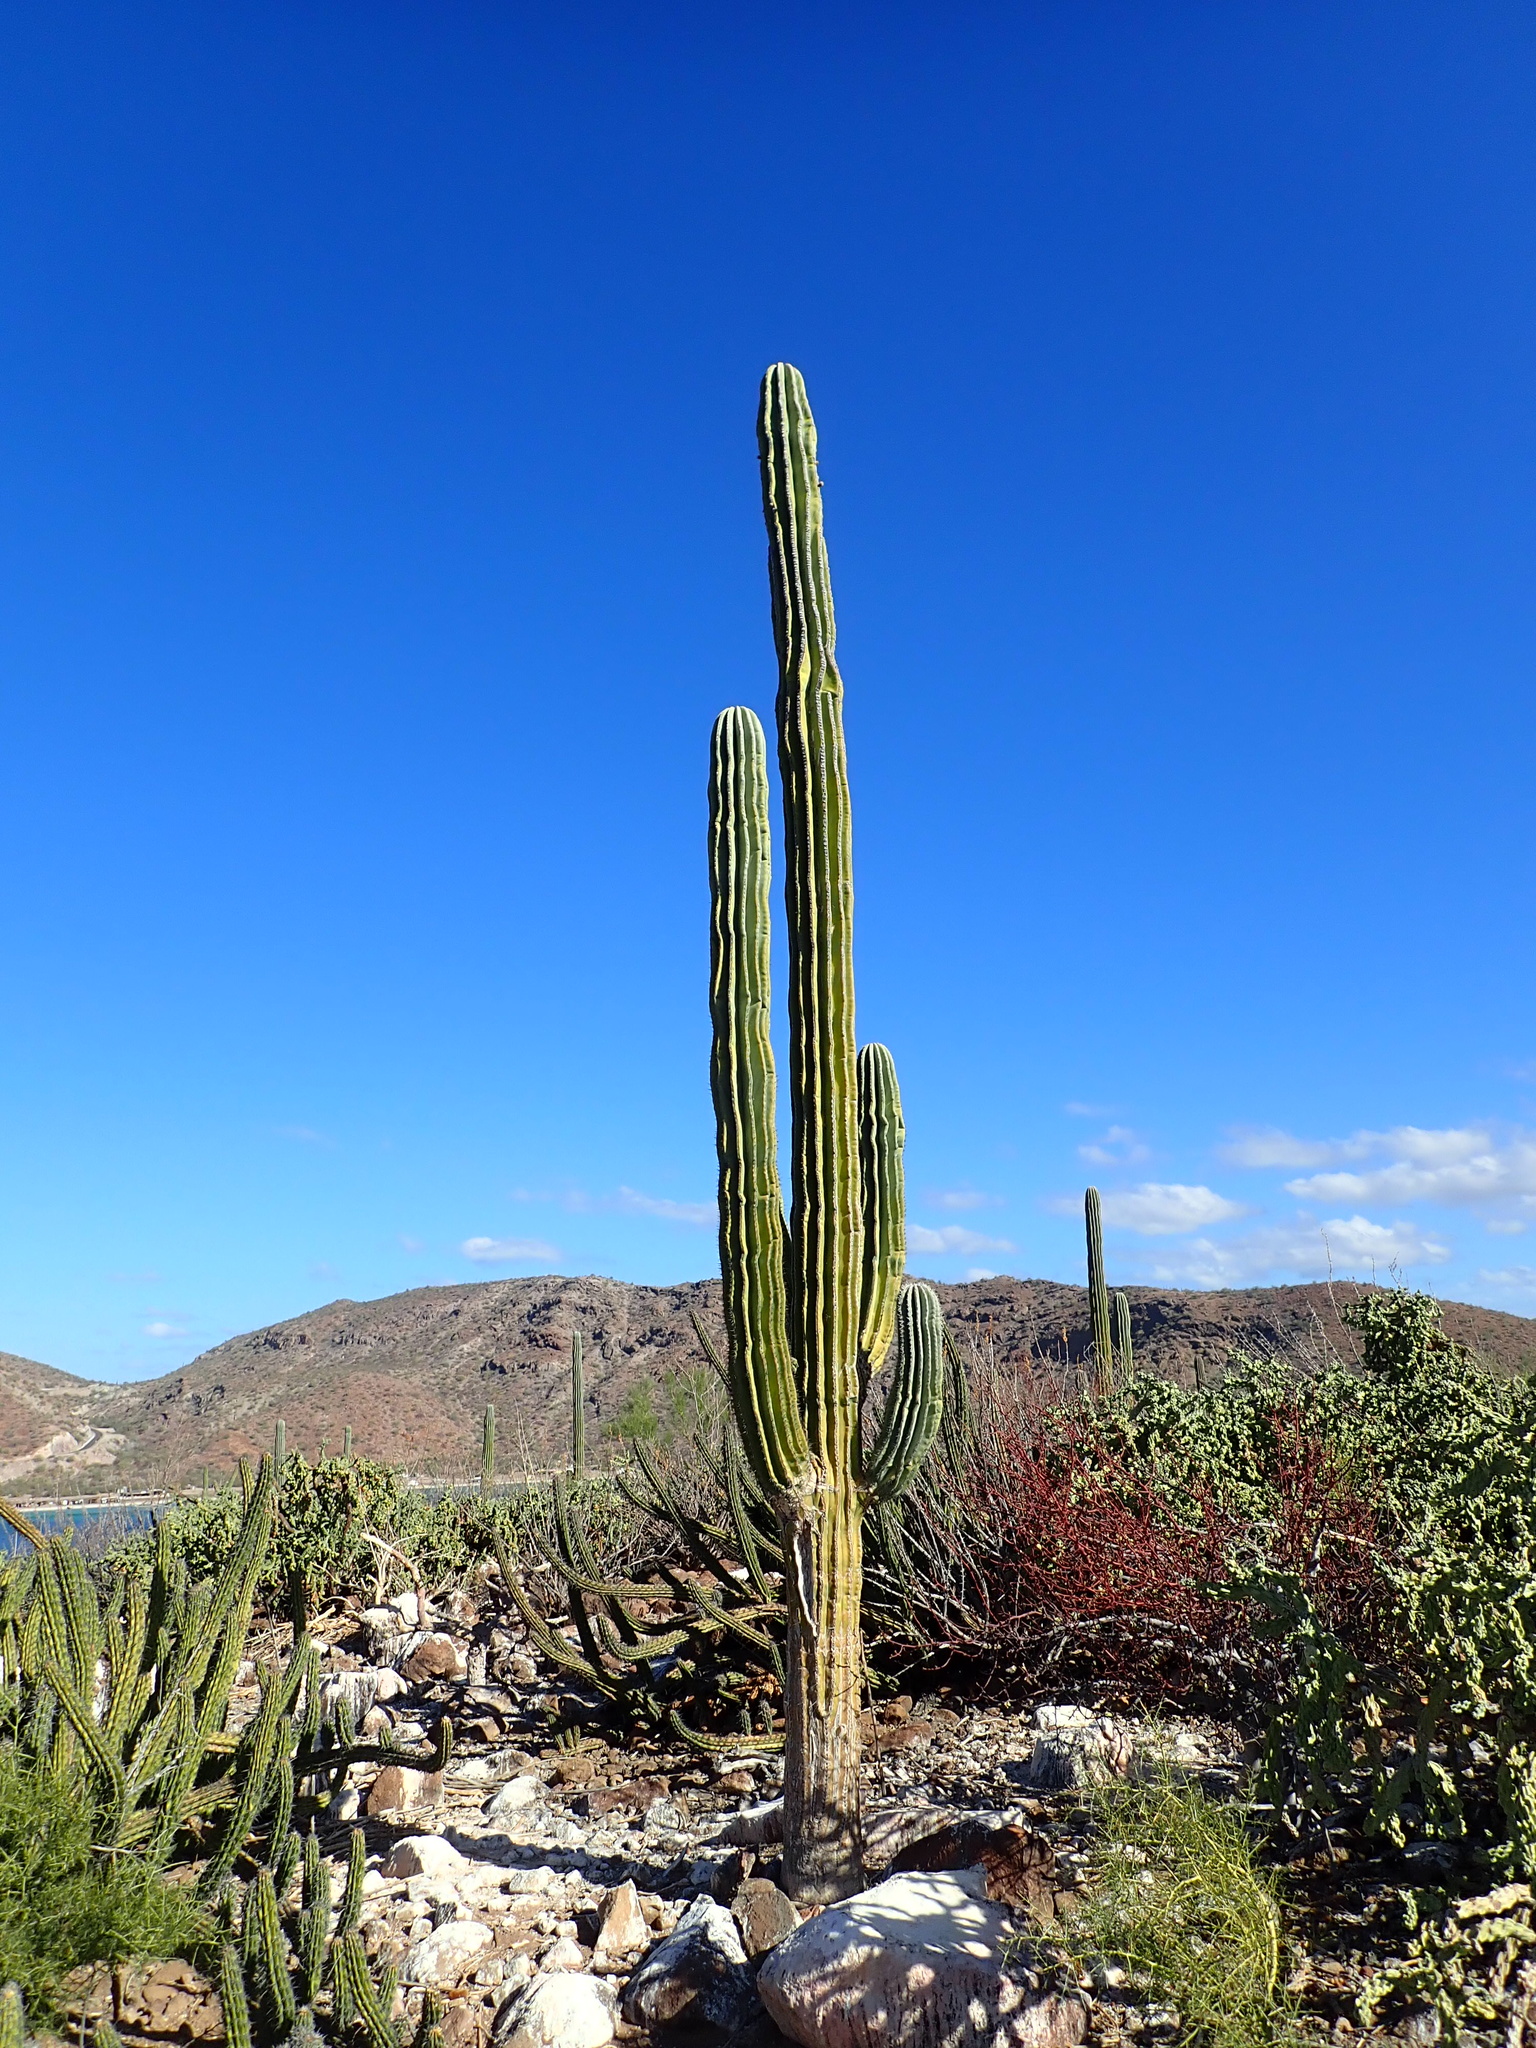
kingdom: Plantae
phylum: Tracheophyta
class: Magnoliopsida
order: Caryophyllales
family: Cactaceae
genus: Pachycereus
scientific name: Pachycereus pringlei
